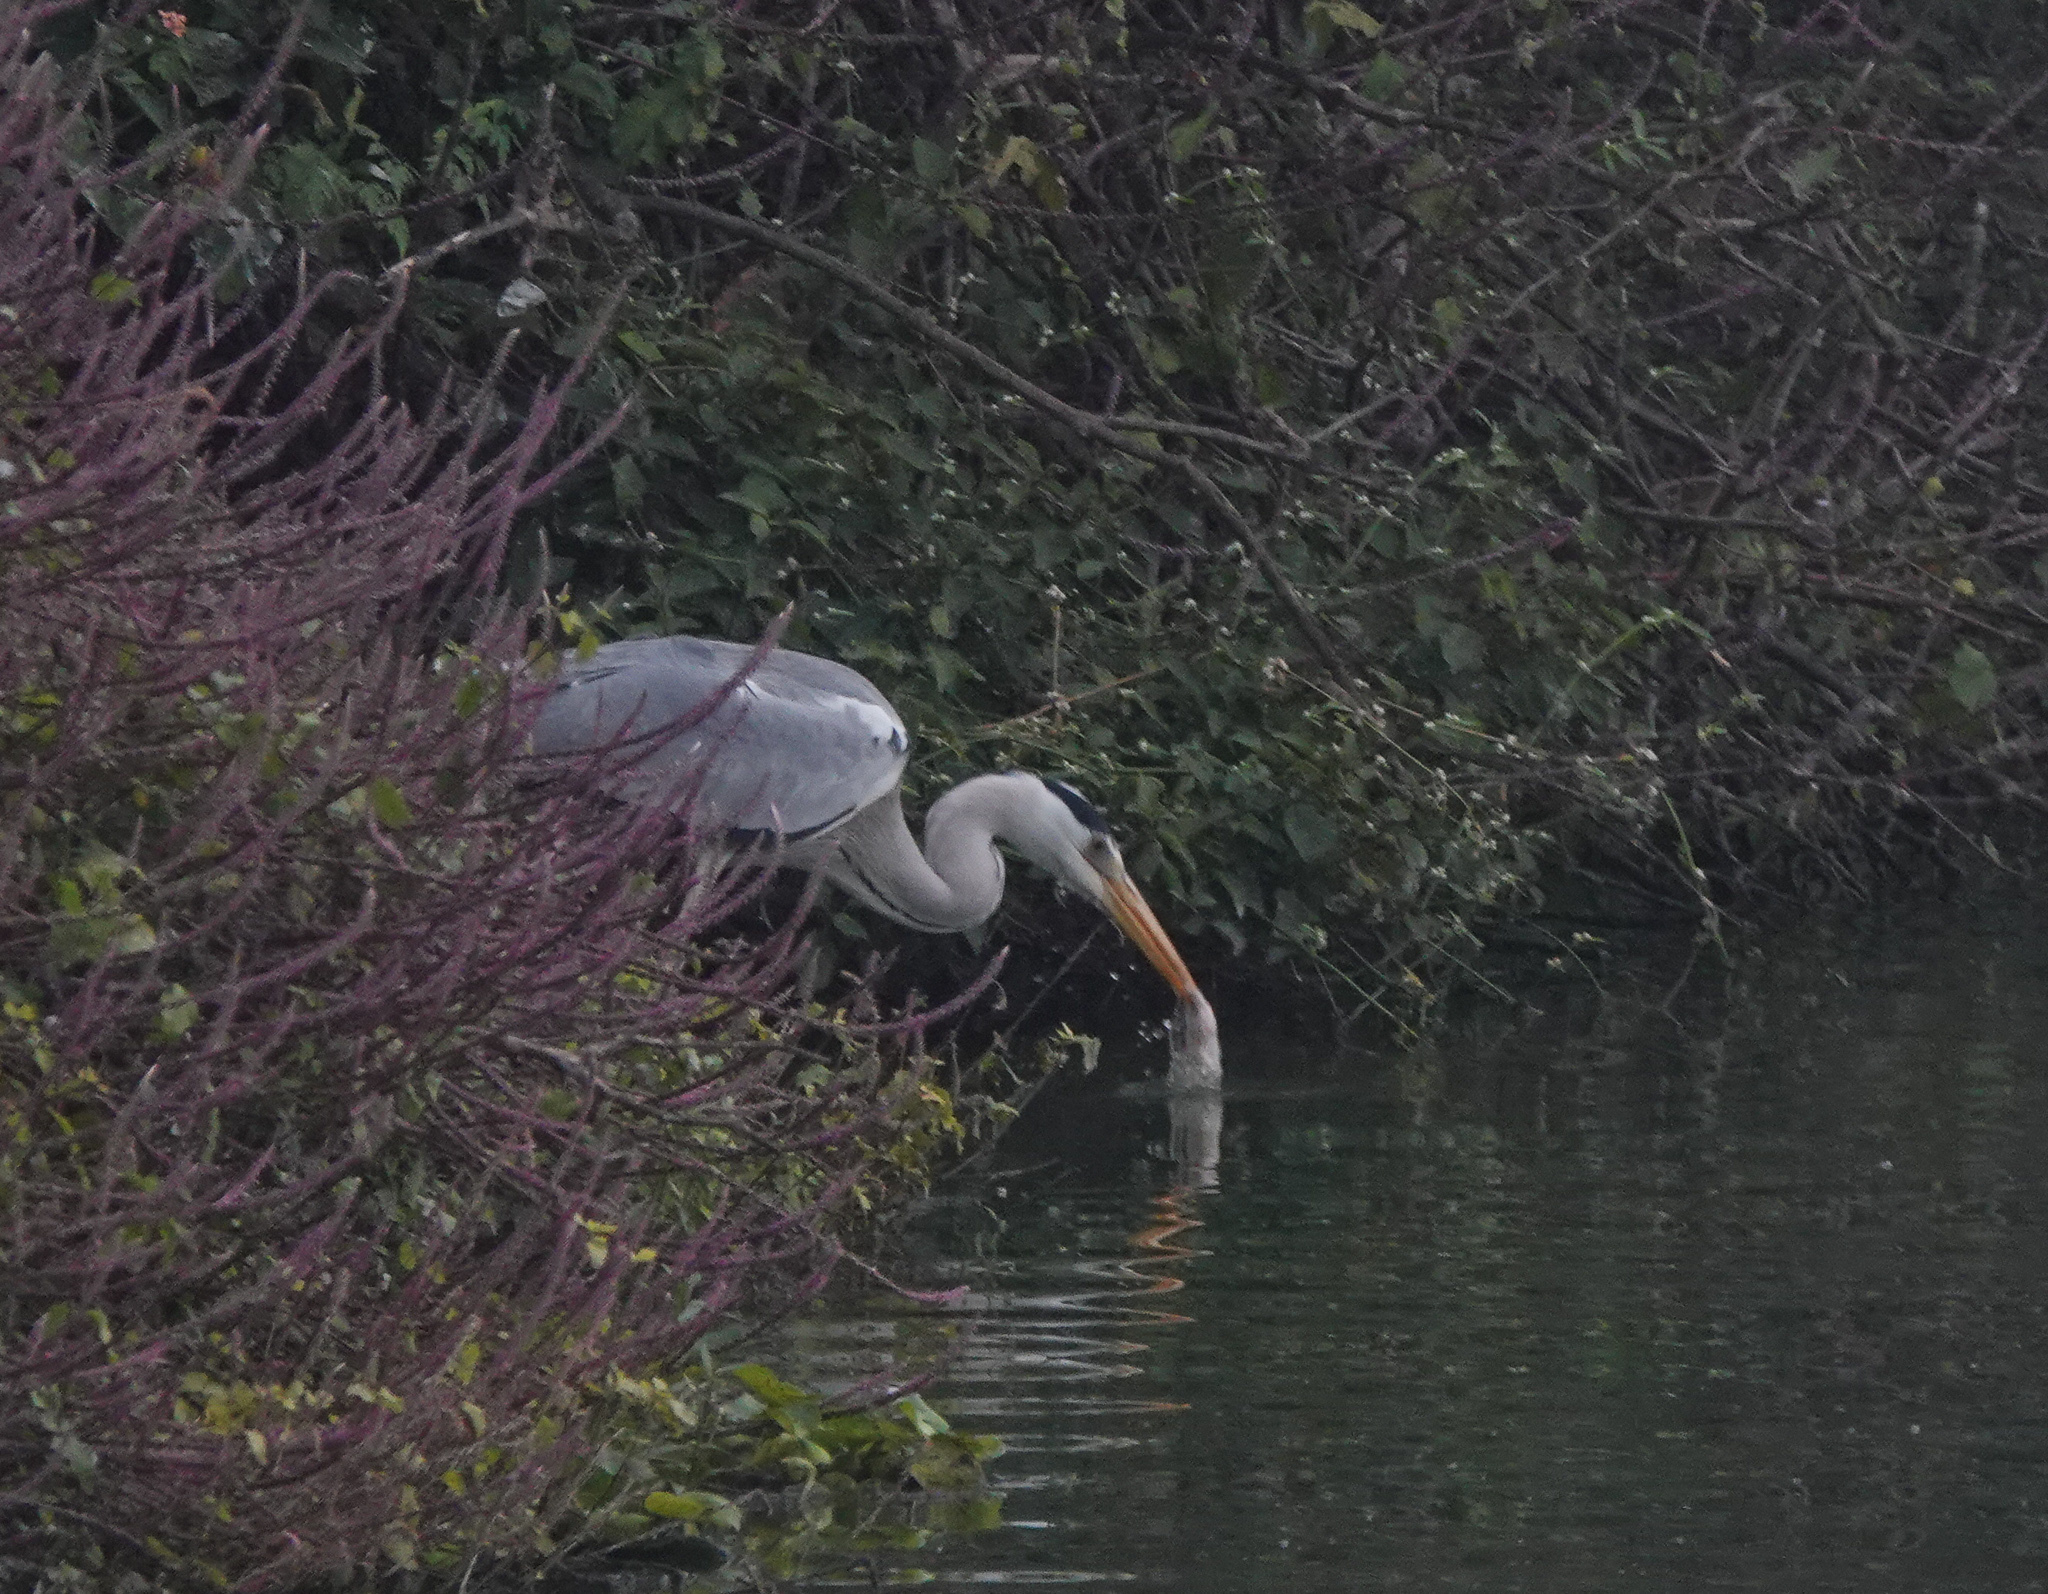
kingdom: Animalia
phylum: Chordata
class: Aves
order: Pelecaniformes
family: Ardeidae
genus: Ardea
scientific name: Ardea cinerea
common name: Grey heron
